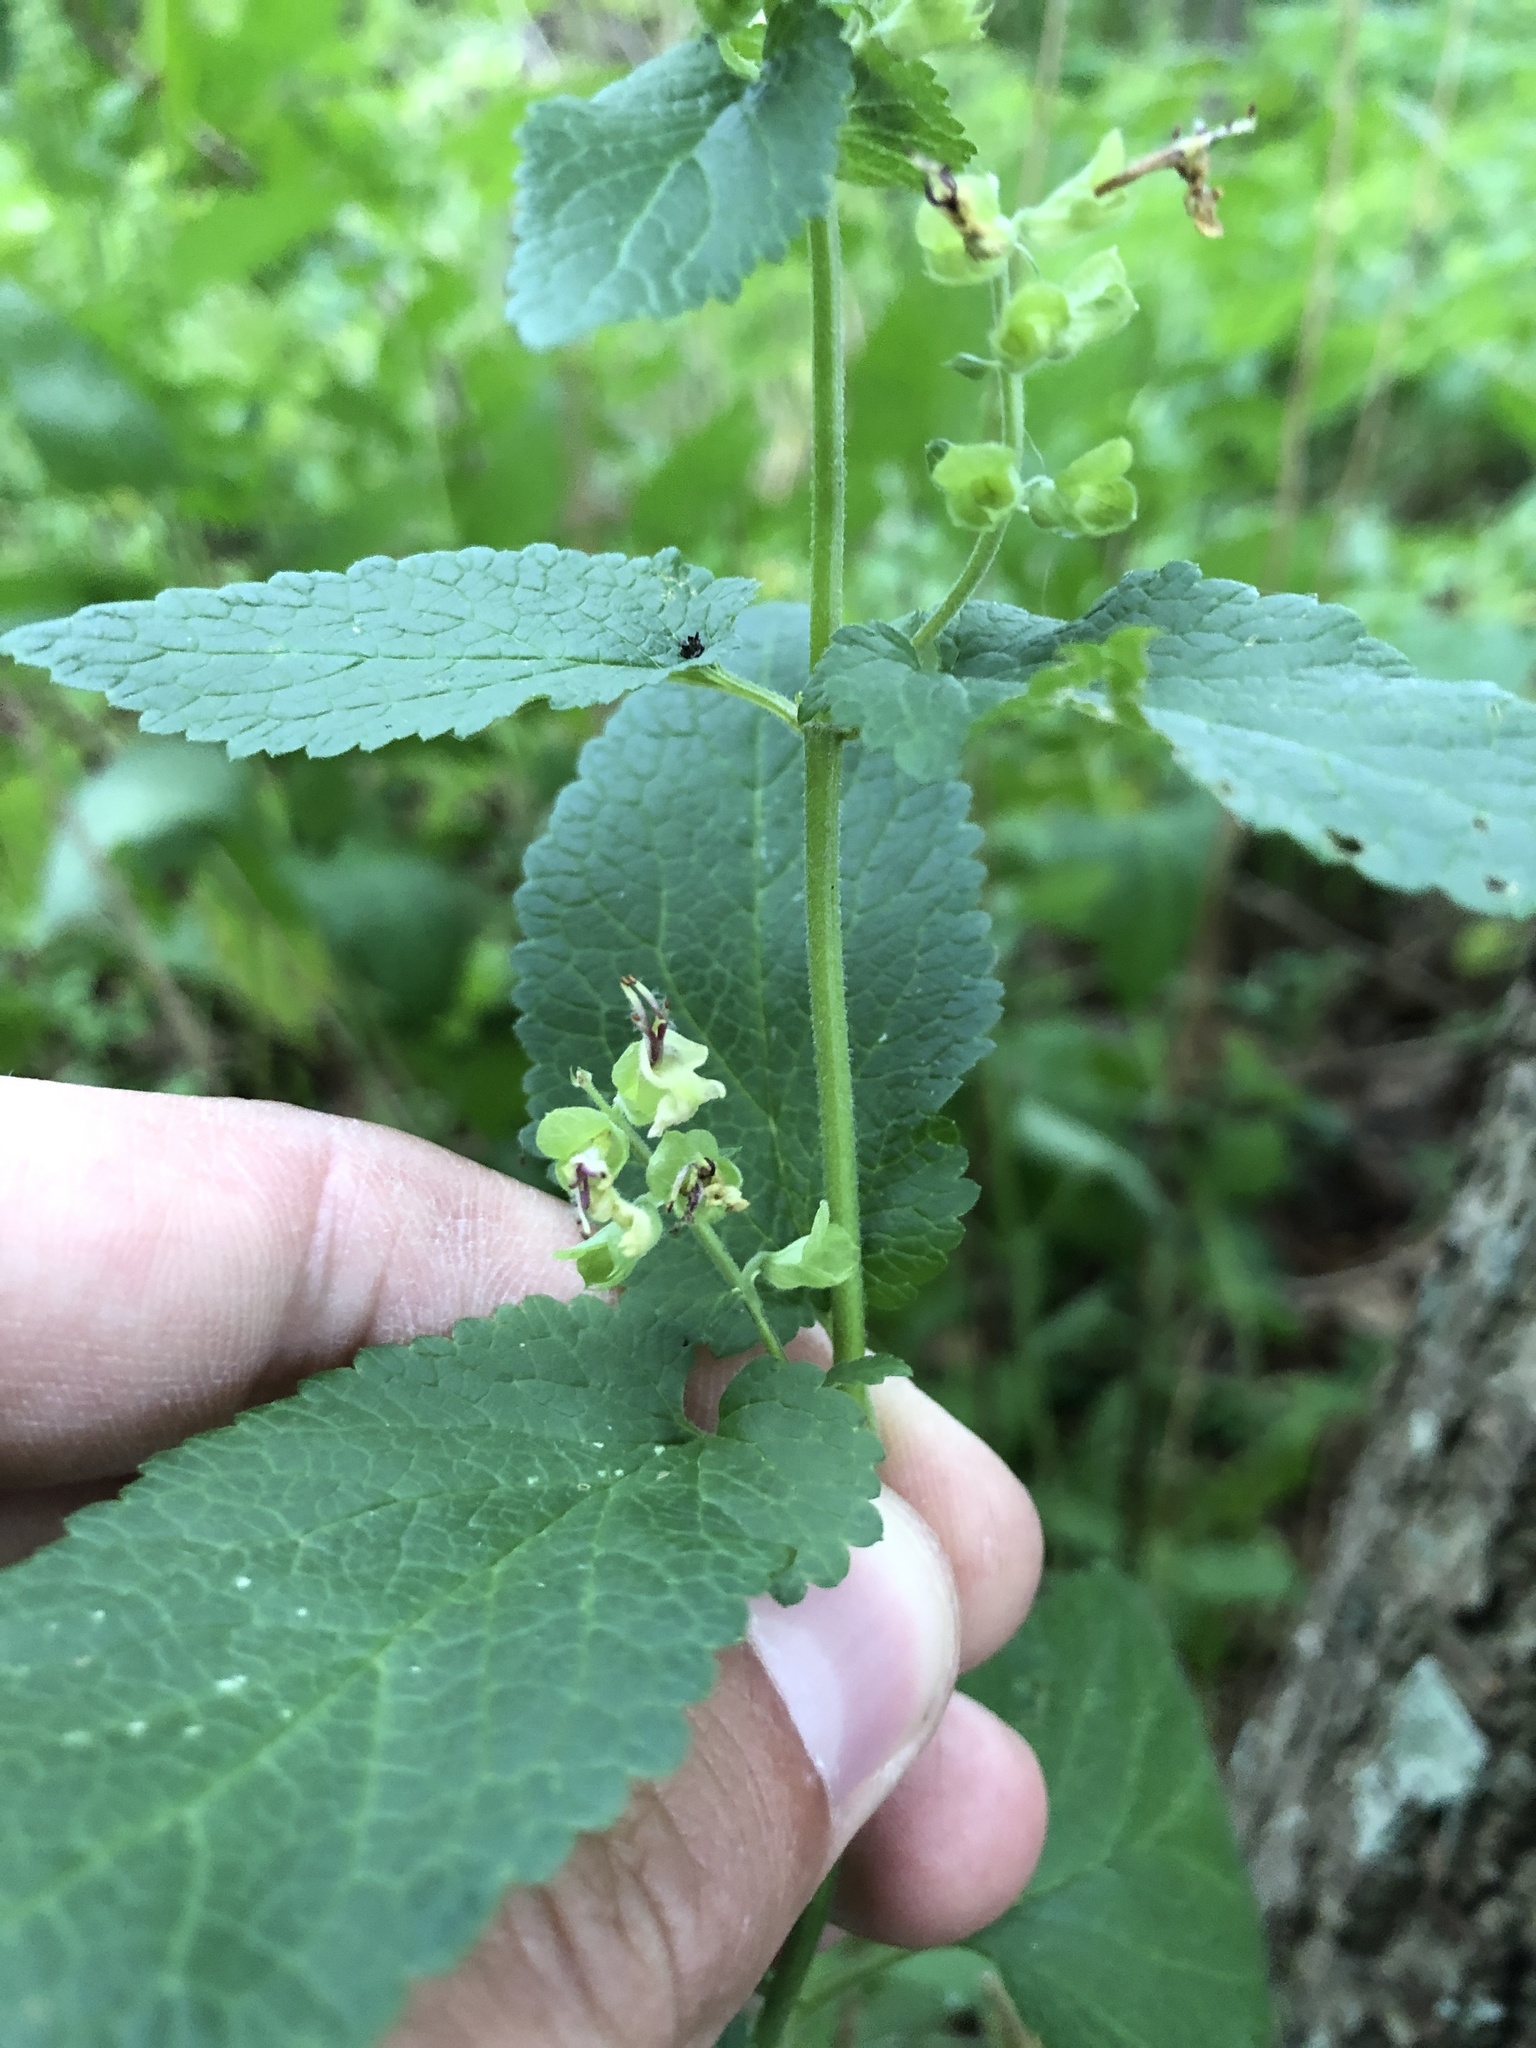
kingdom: Plantae
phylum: Tracheophyta
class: Magnoliopsida
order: Lamiales
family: Lamiaceae
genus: Teucrium
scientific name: Teucrium scorodonia
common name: Woodland germander
